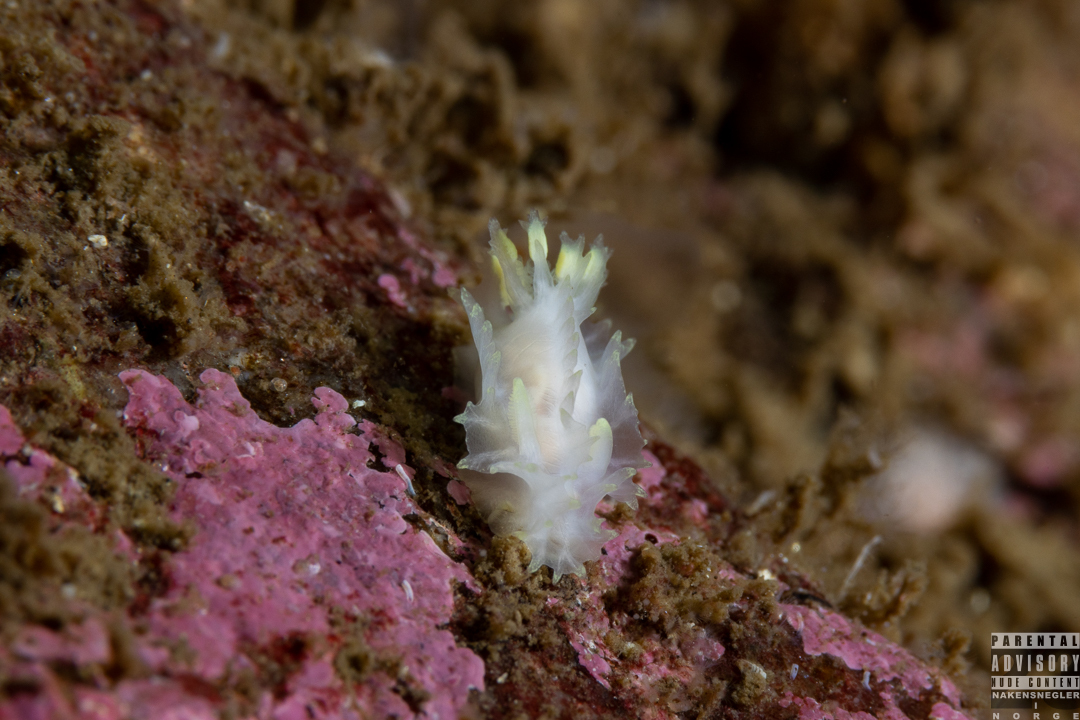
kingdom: Animalia
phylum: Mollusca
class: Gastropoda
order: Nudibranchia
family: Goniodorididae
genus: Lophodoris
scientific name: Lophodoris danielsseni
